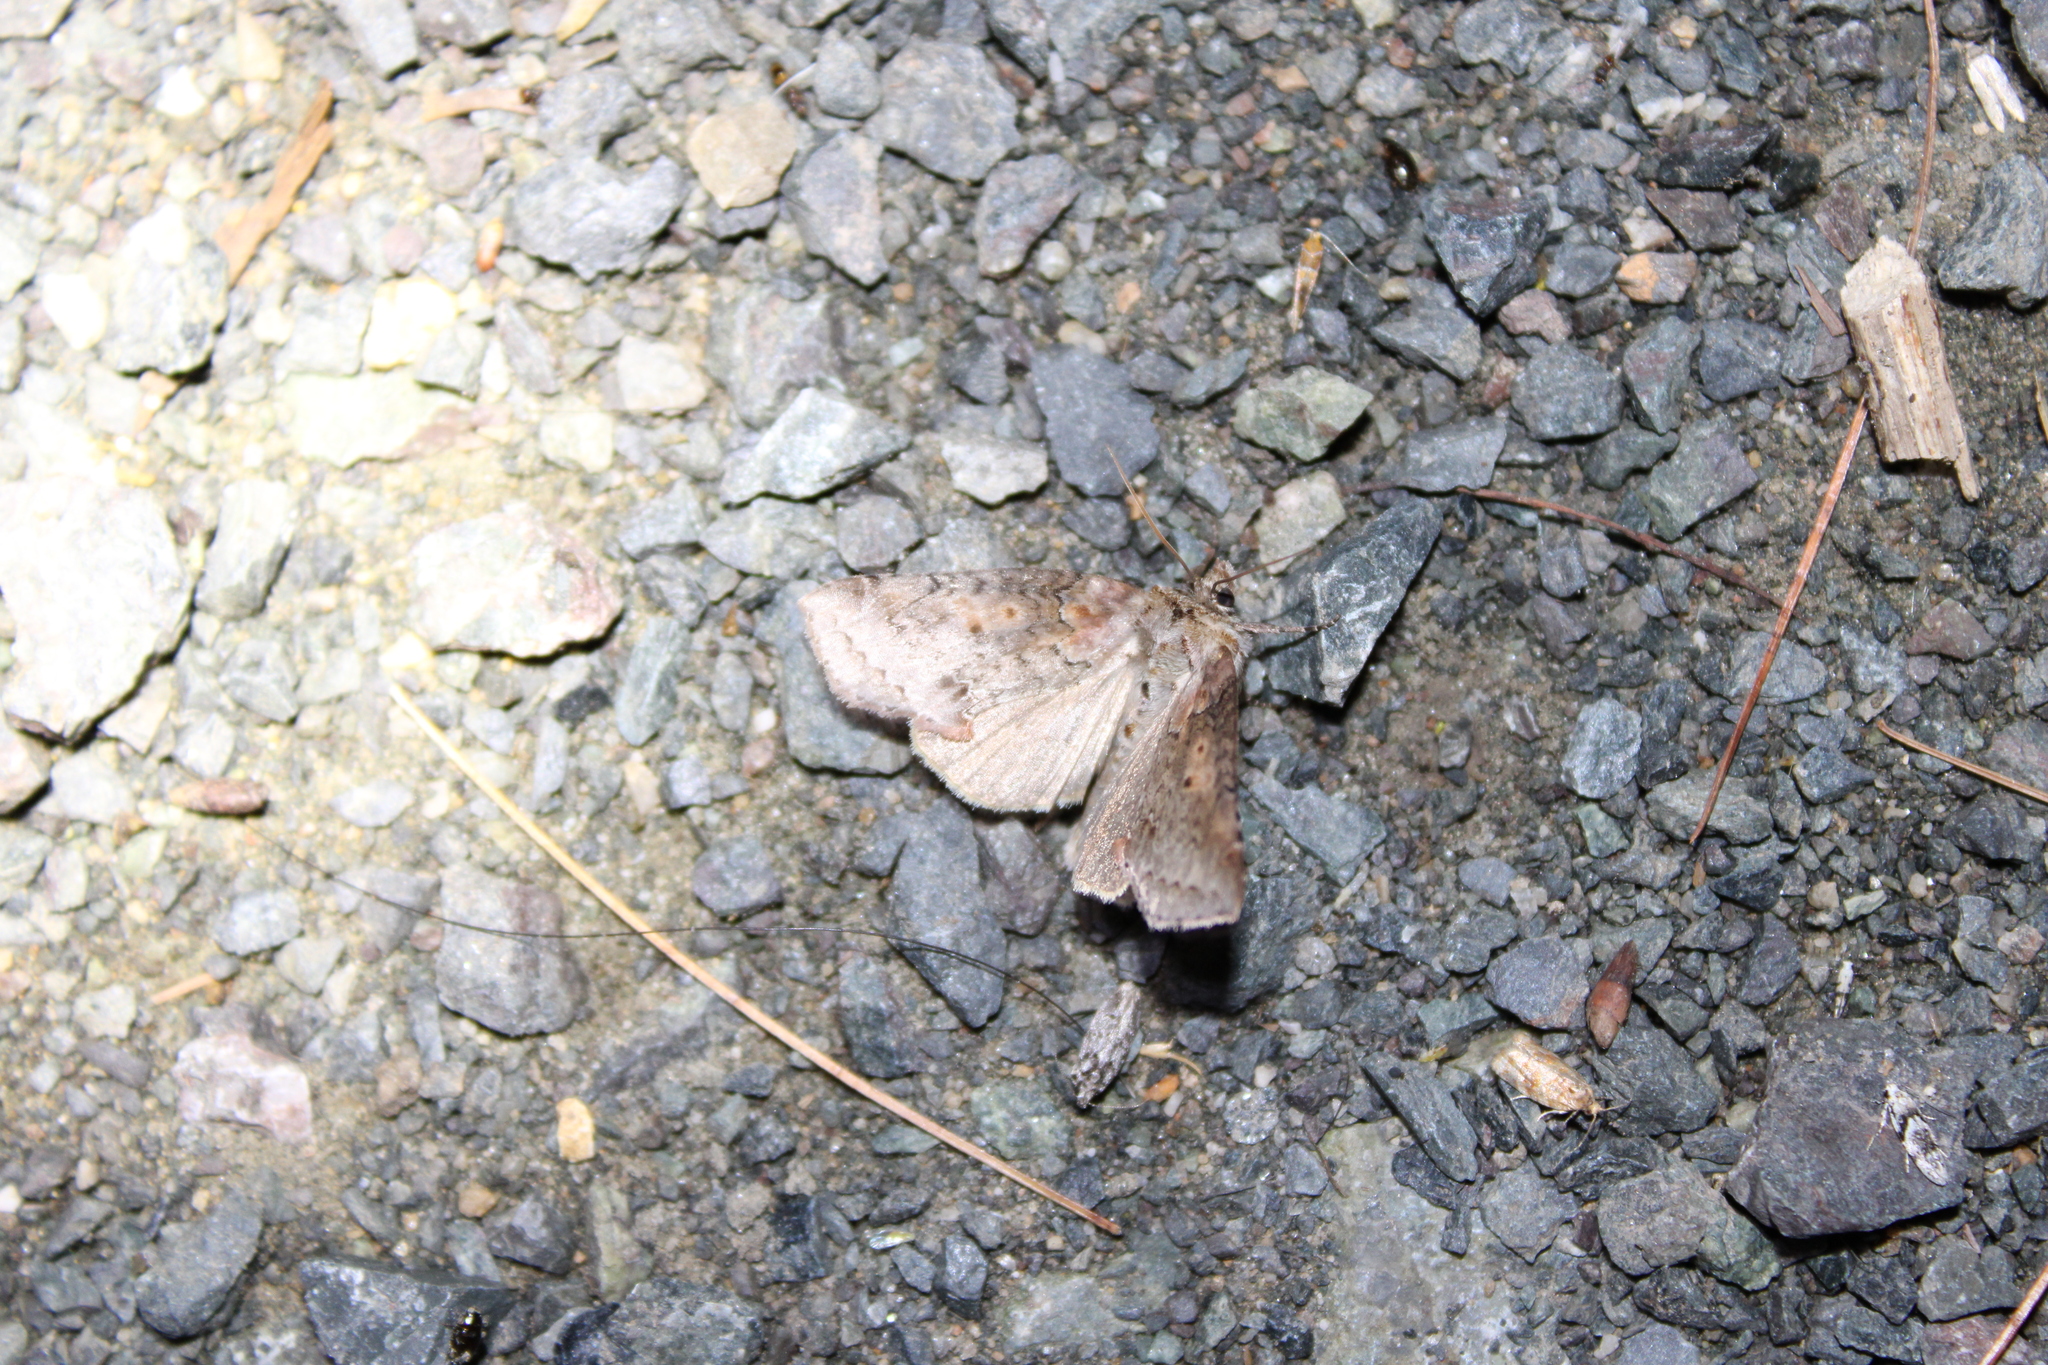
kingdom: Animalia
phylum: Arthropoda
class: Insecta
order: Lepidoptera
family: Drepanidae
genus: Pseudothyatira
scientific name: Pseudothyatira cymatophoroides
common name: Tufted thyatirid moth
